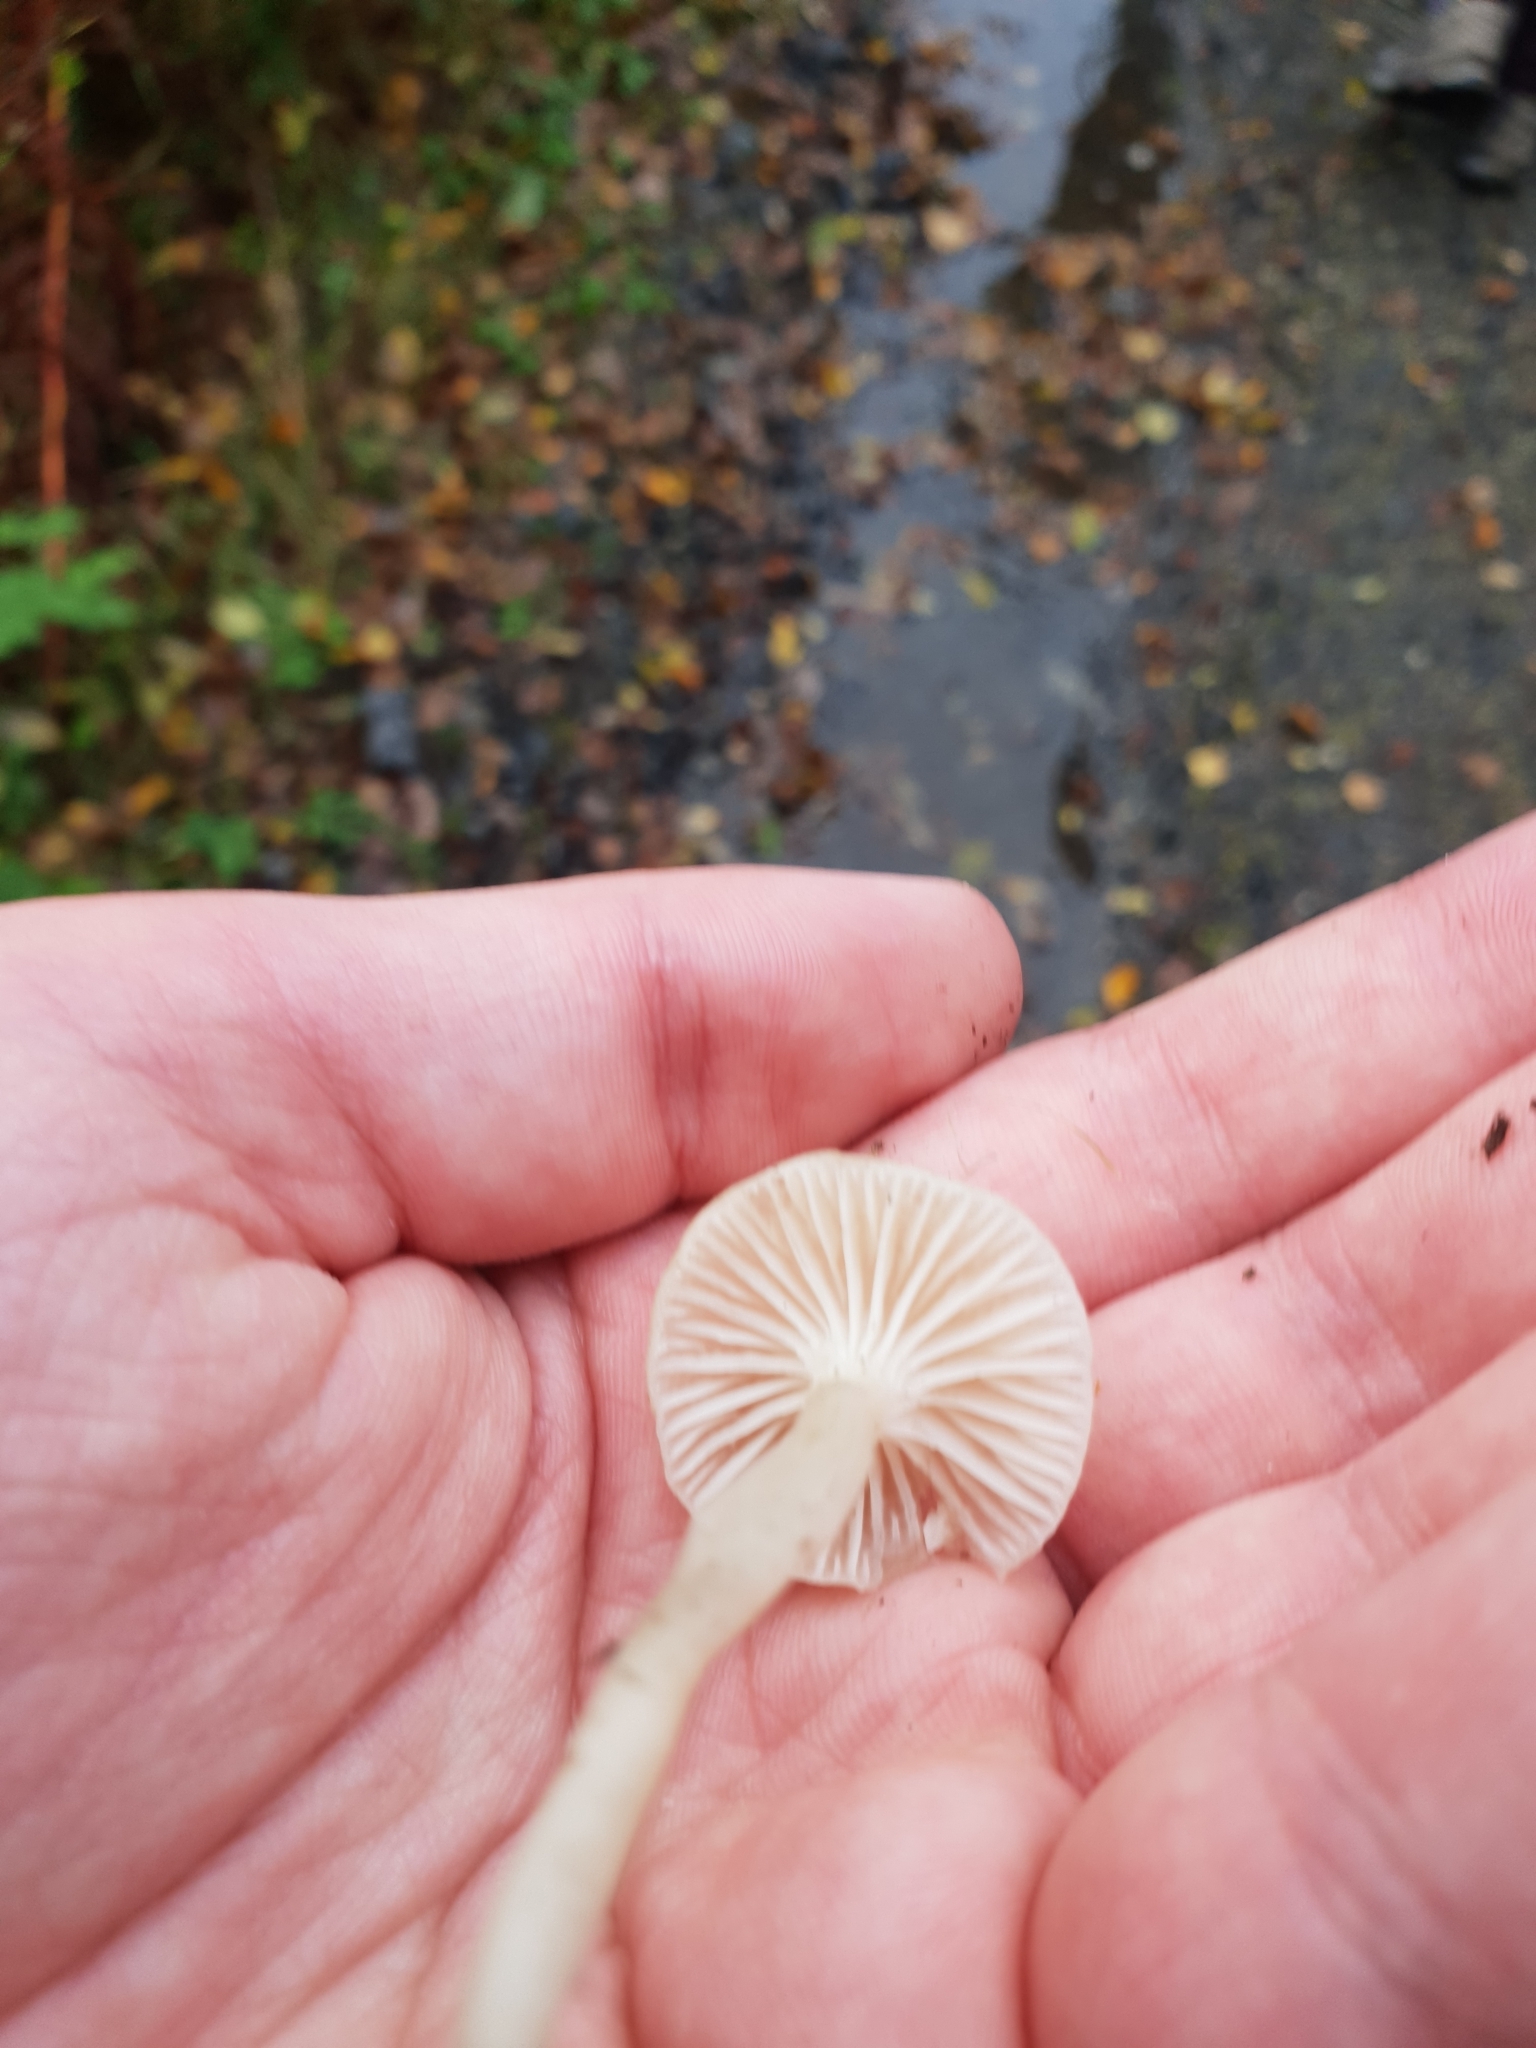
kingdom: Fungi
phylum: Basidiomycota
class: Agaricomycetes
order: Agaricales
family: Hygrophoraceae
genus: Cuphophyllus
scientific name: Cuphophyllus virgineus
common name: Snowy waxcap
